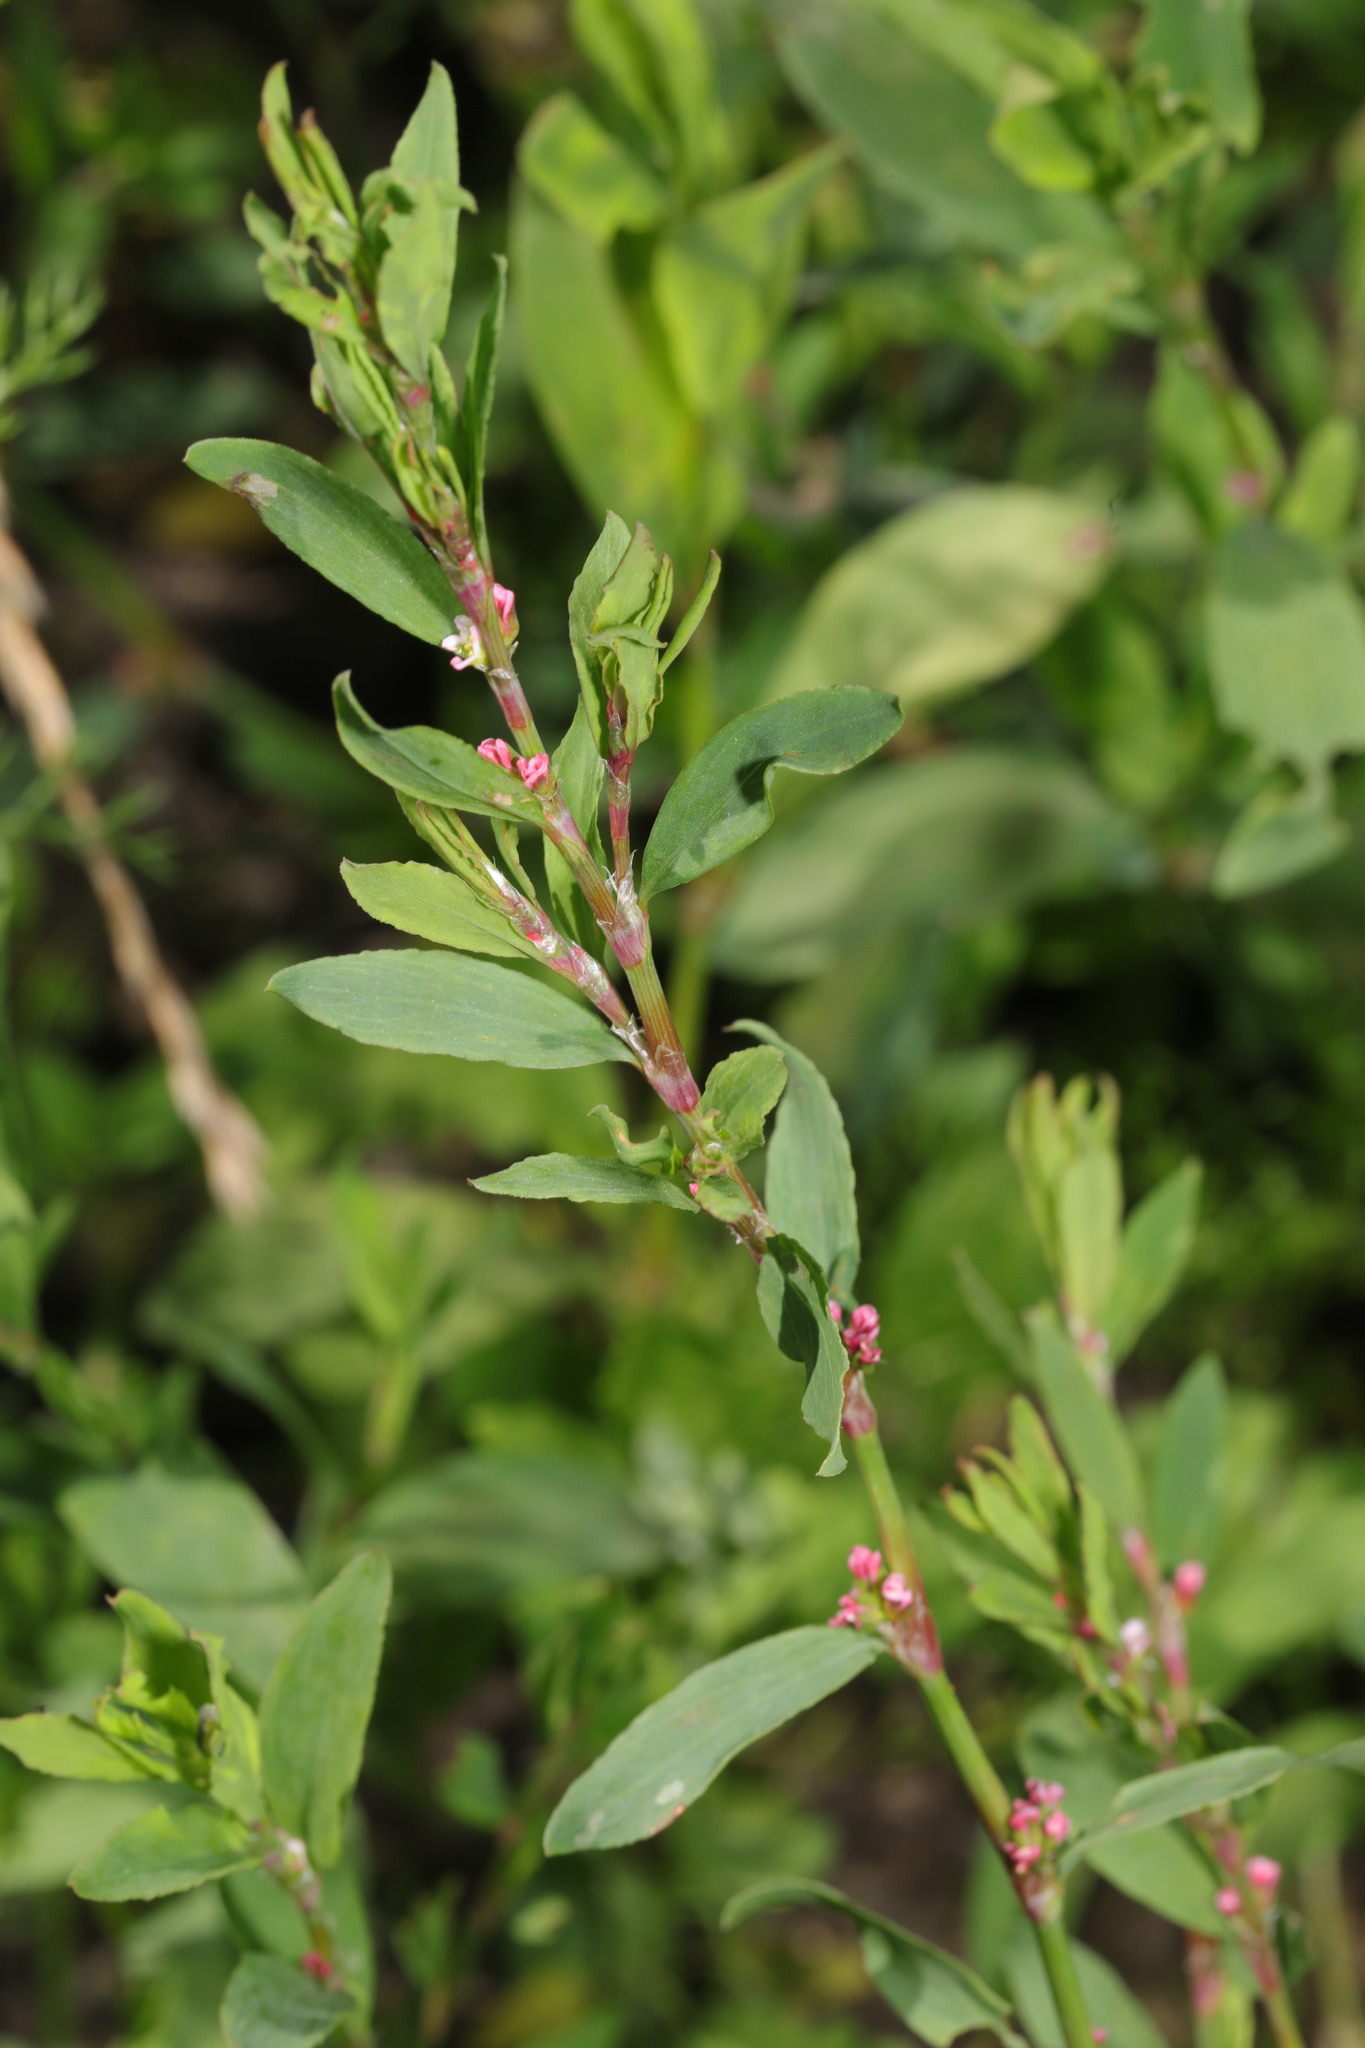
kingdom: Plantae
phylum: Tracheophyta
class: Magnoliopsida
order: Caryophyllales
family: Polygonaceae
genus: Polygonum
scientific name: Polygonum aviculare
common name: Prostrate knotweed
